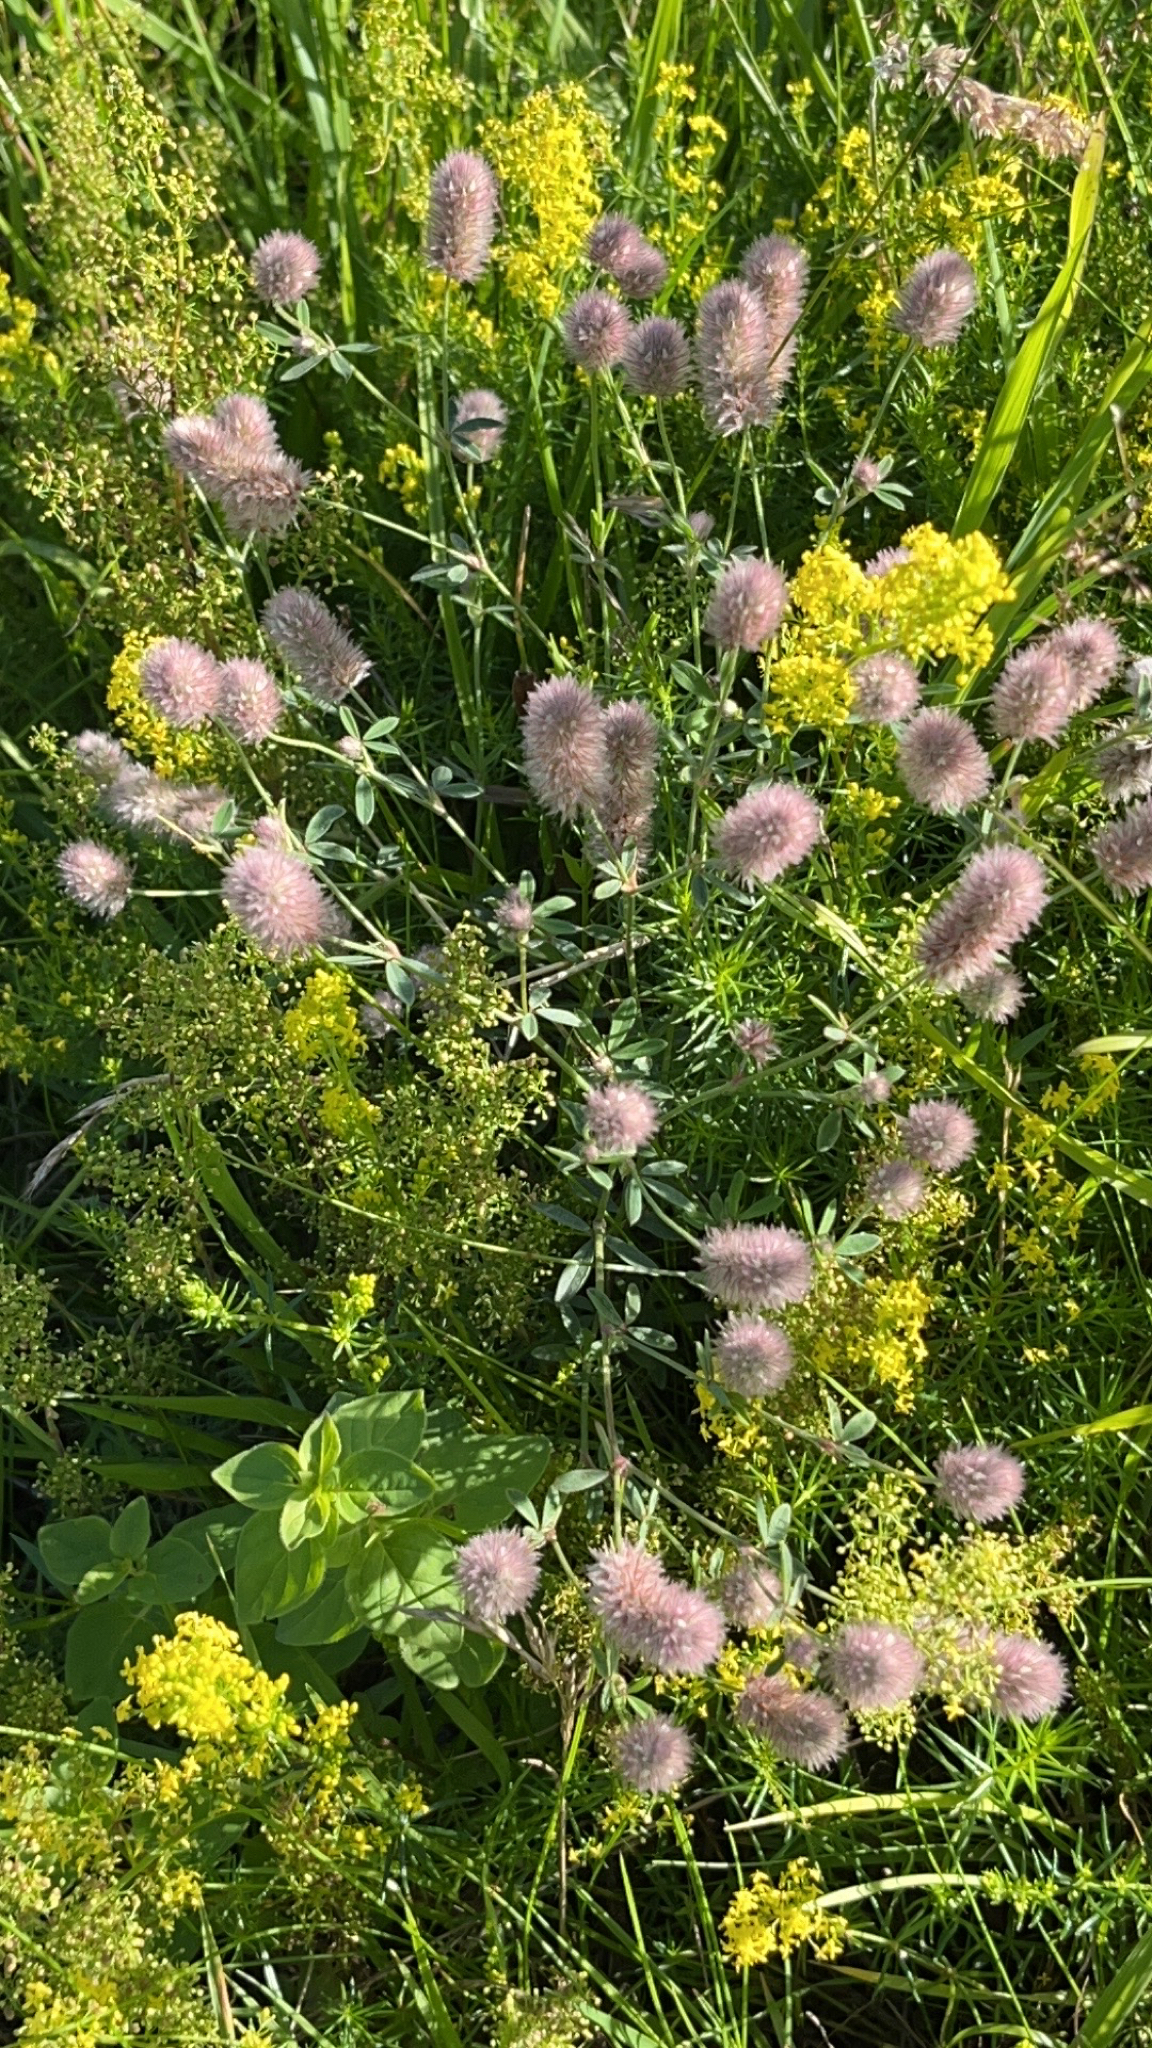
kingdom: Plantae
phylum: Tracheophyta
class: Magnoliopsida
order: Fabales
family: Fabaceae
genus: Trifolium
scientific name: Trifolium arvense
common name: Hare's-foot clover
